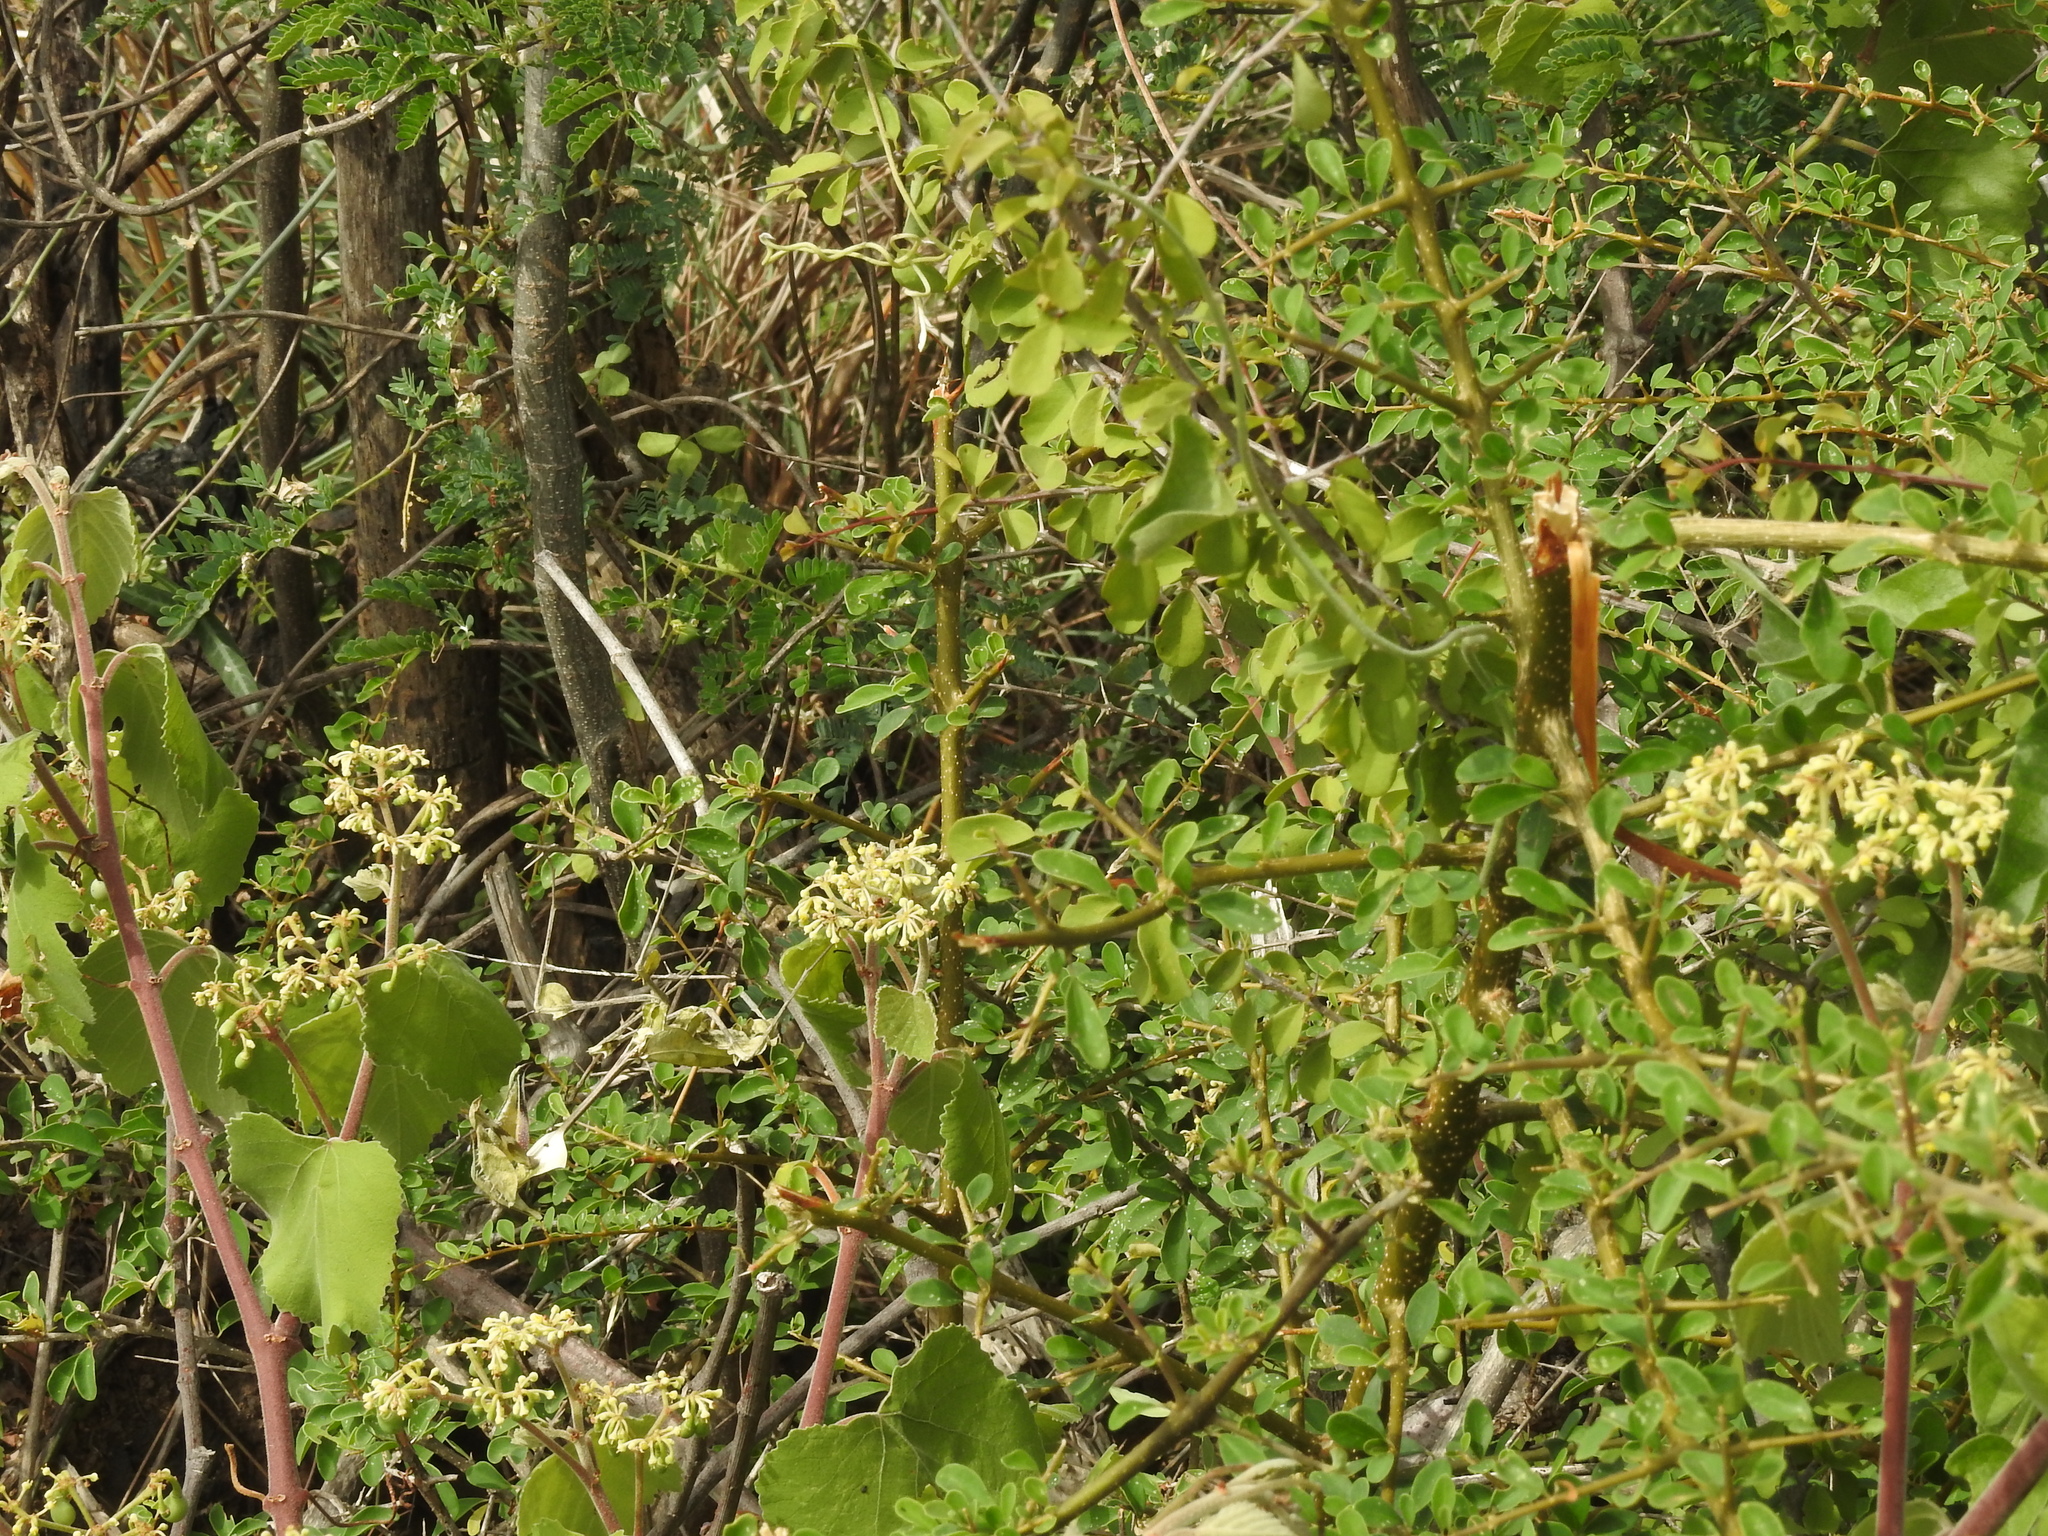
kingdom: Animalia
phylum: Arthropoda
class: Insecta
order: Mantodea
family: Empusidae
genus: Gongylus
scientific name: Gongylus gongylodes
